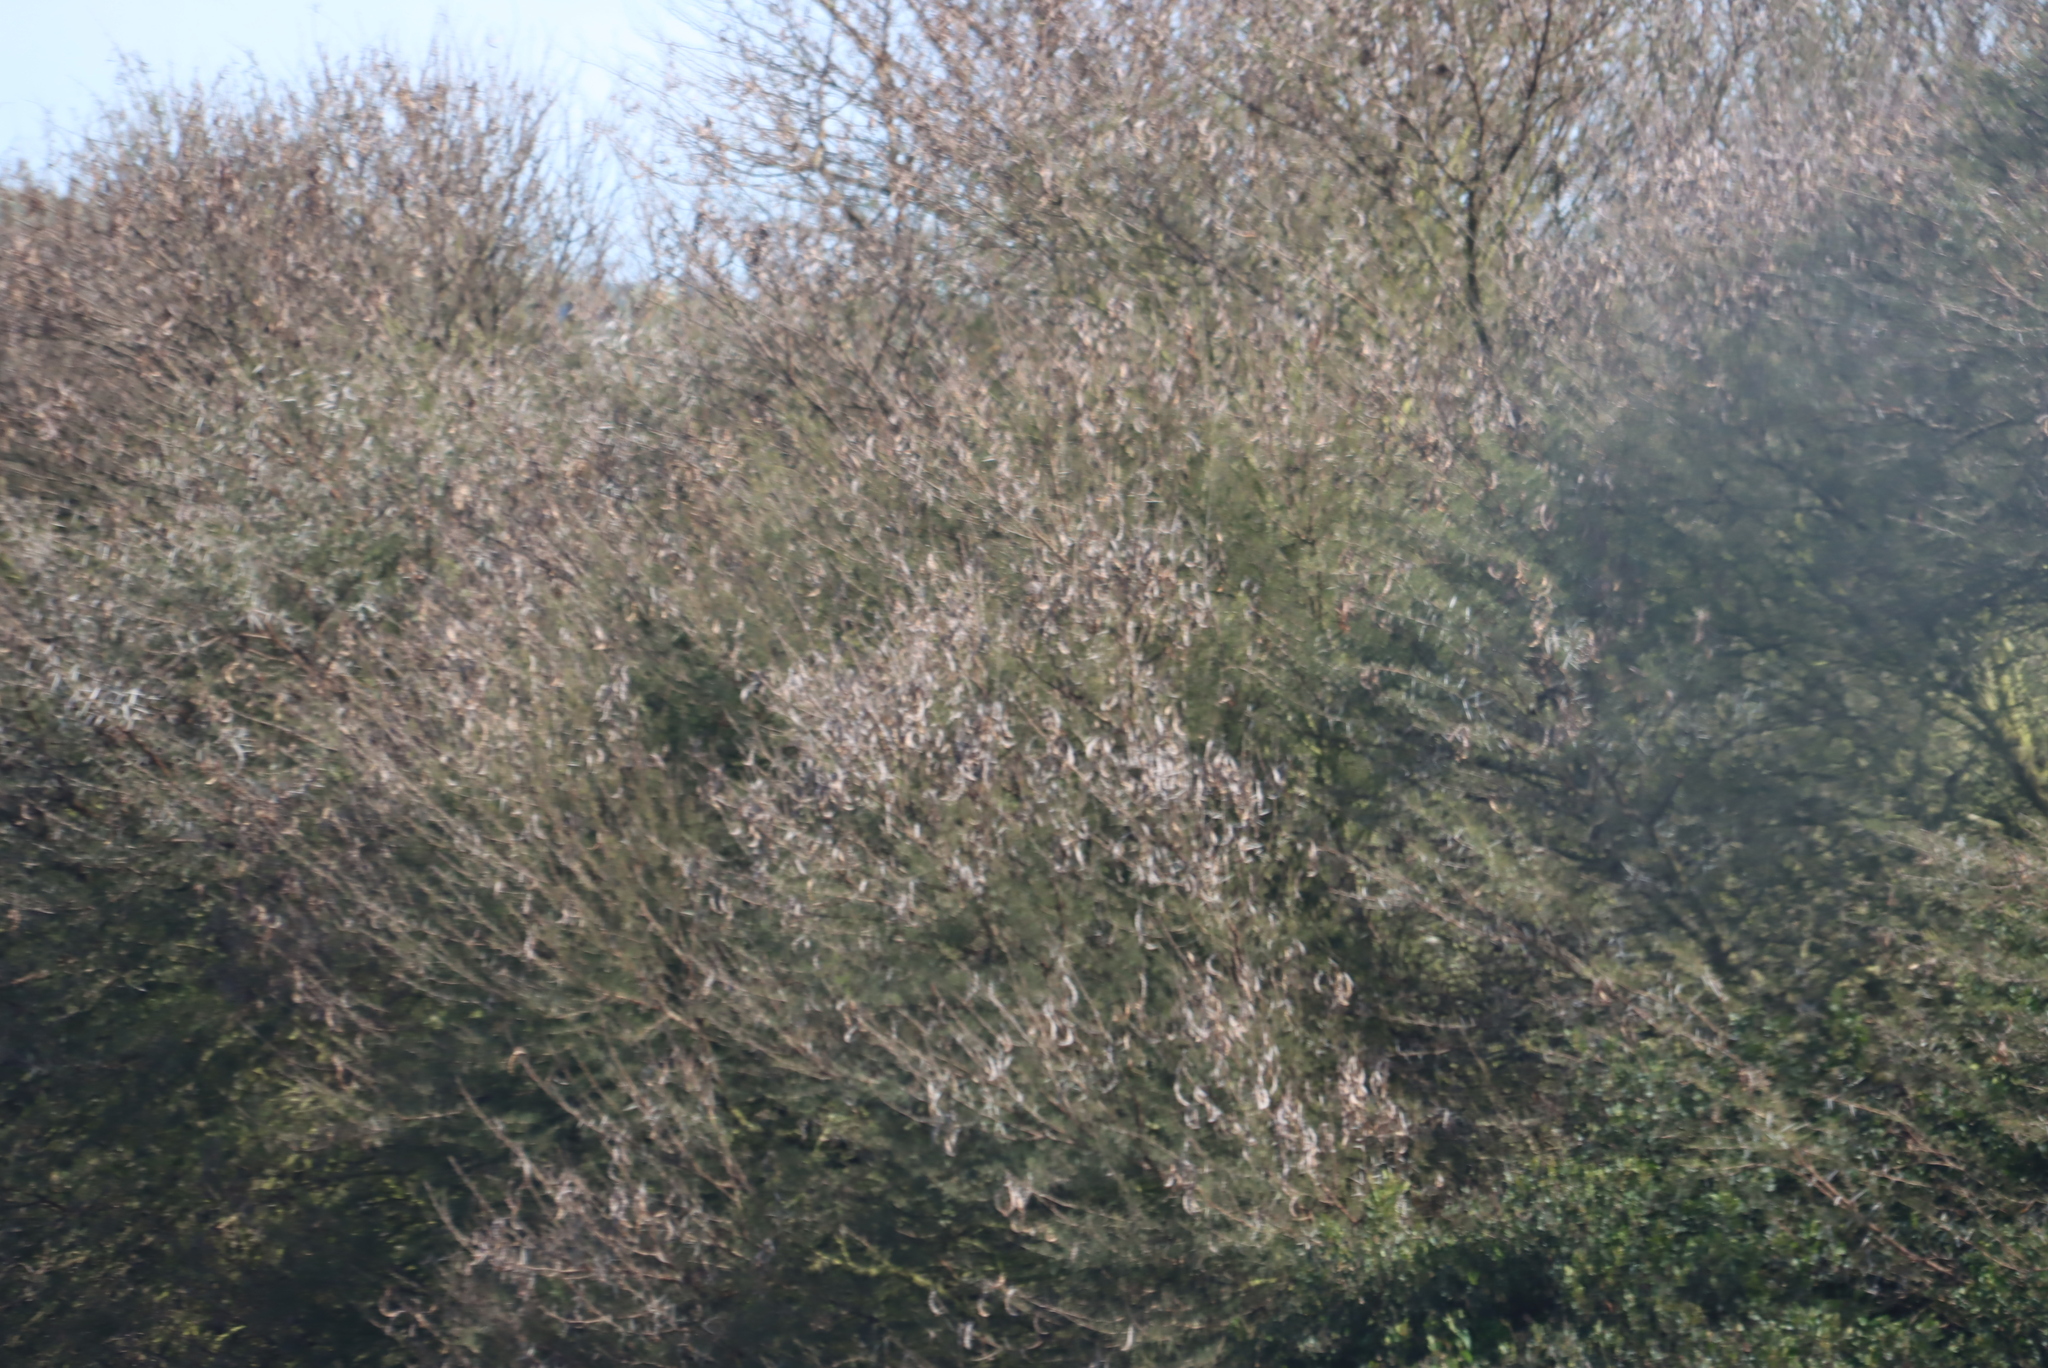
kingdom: Plantae
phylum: Tracheophyta
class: Magnoliopsida
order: Fabales
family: Fabaceae
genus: Vachellia
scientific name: Vachellia karroo
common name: Sweet thorn
